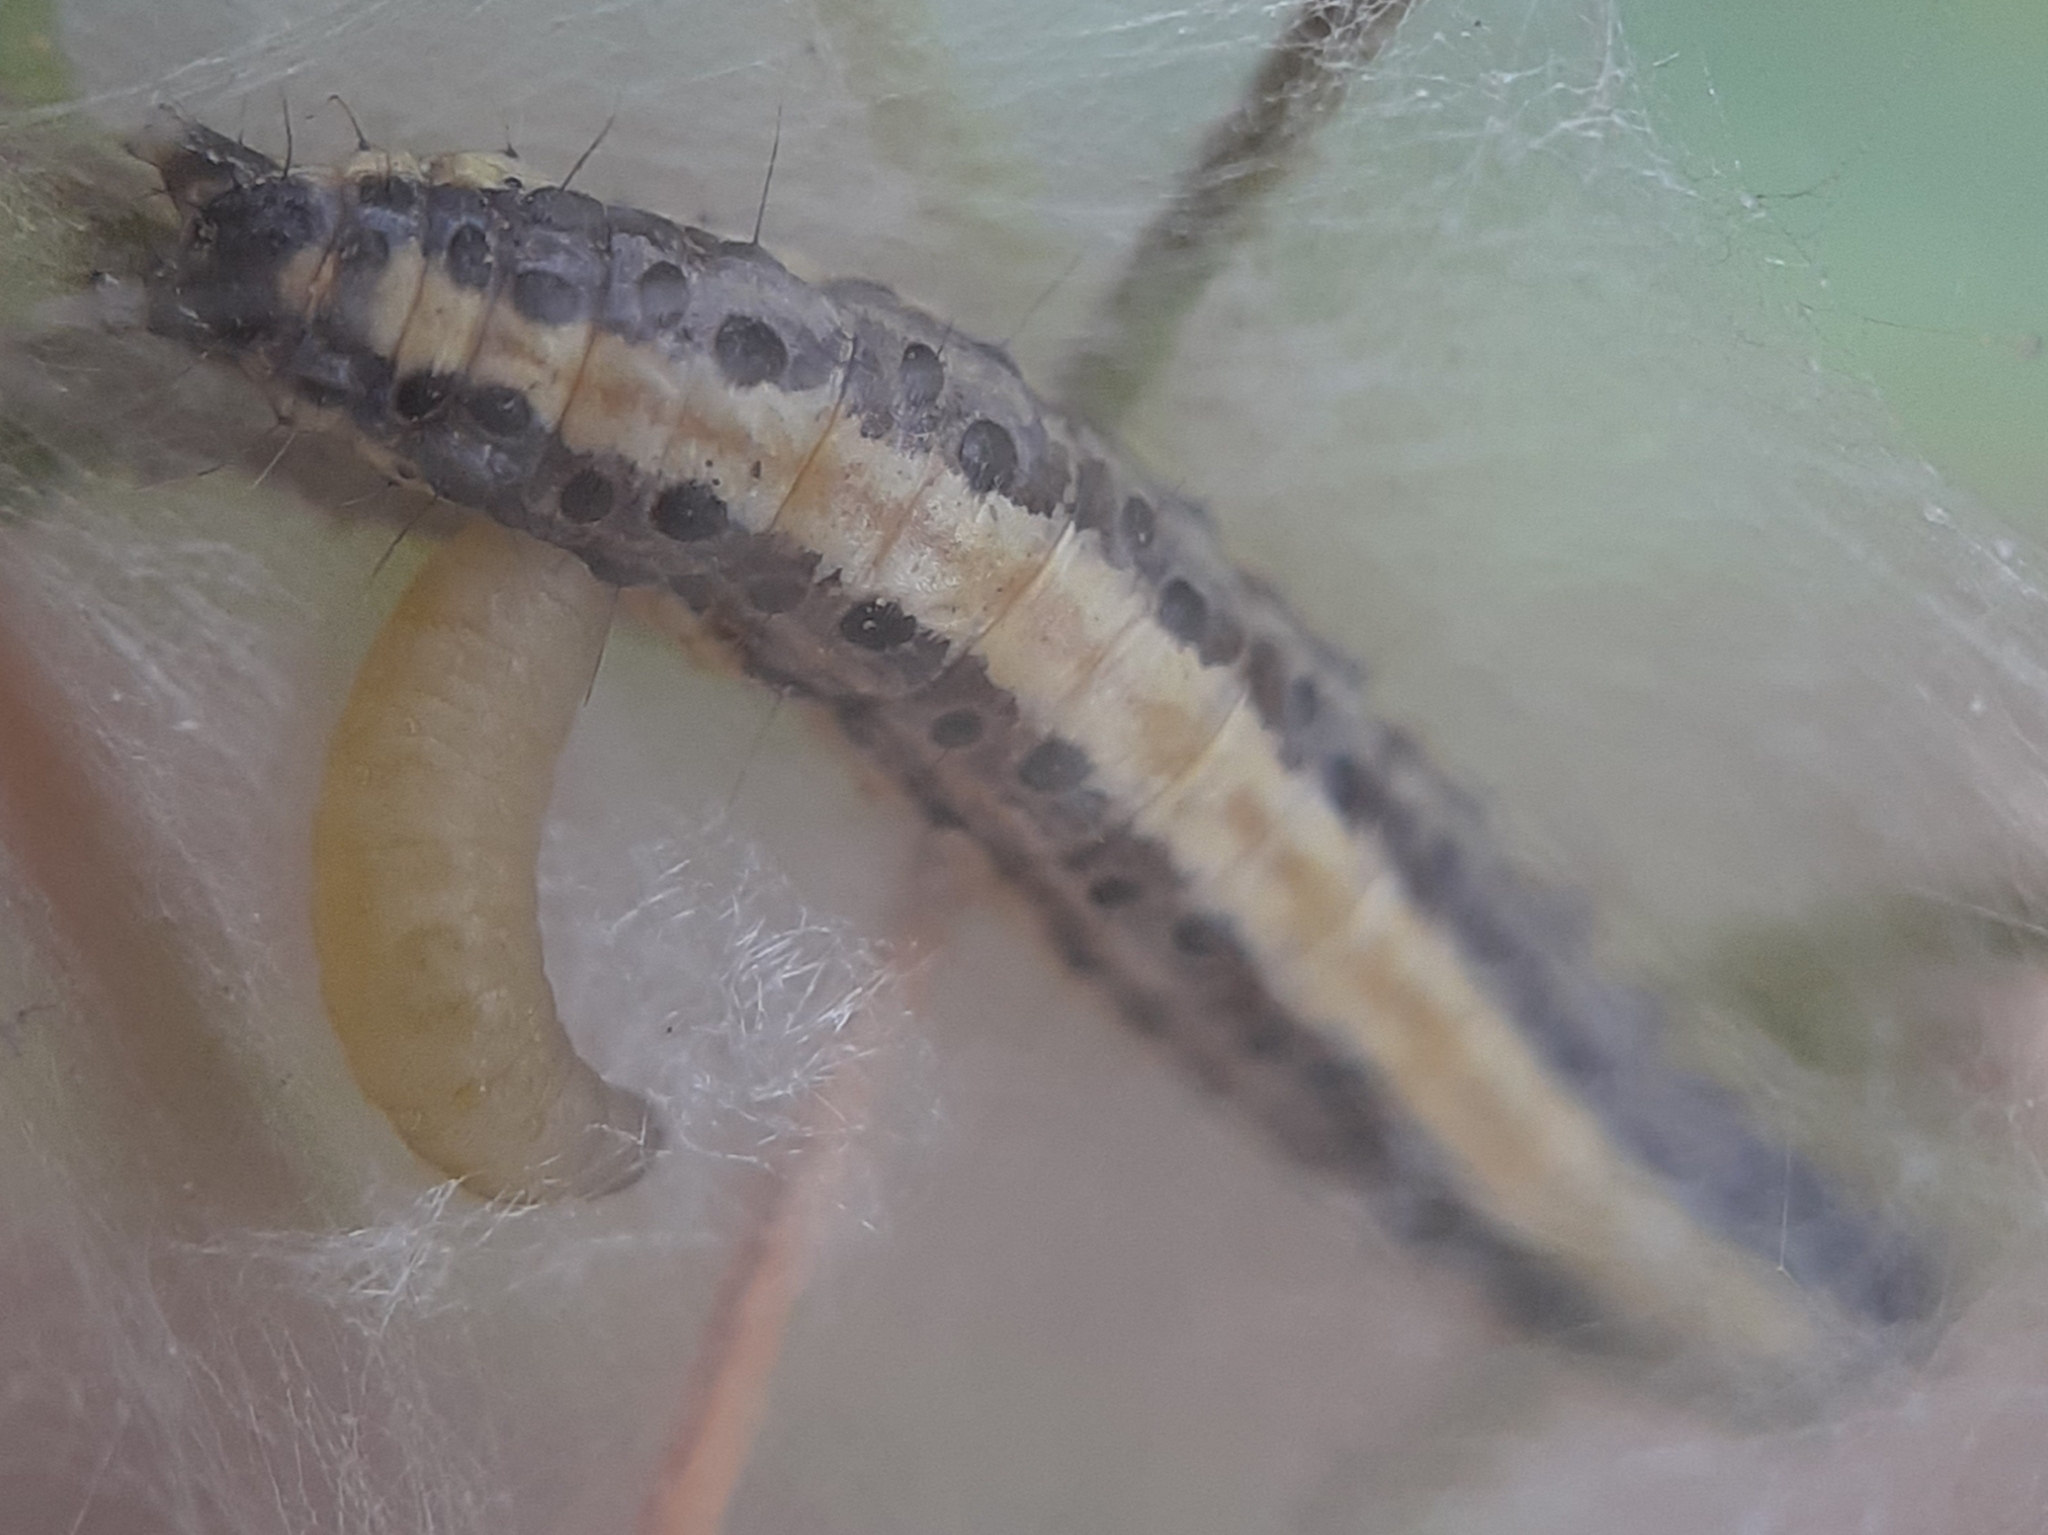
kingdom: Animalia
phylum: Arthropoda
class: Insecta
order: Lepidoptera
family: Crambidae
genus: Evergestis
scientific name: Evergestis extimalis
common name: Marbled yellow pearl
